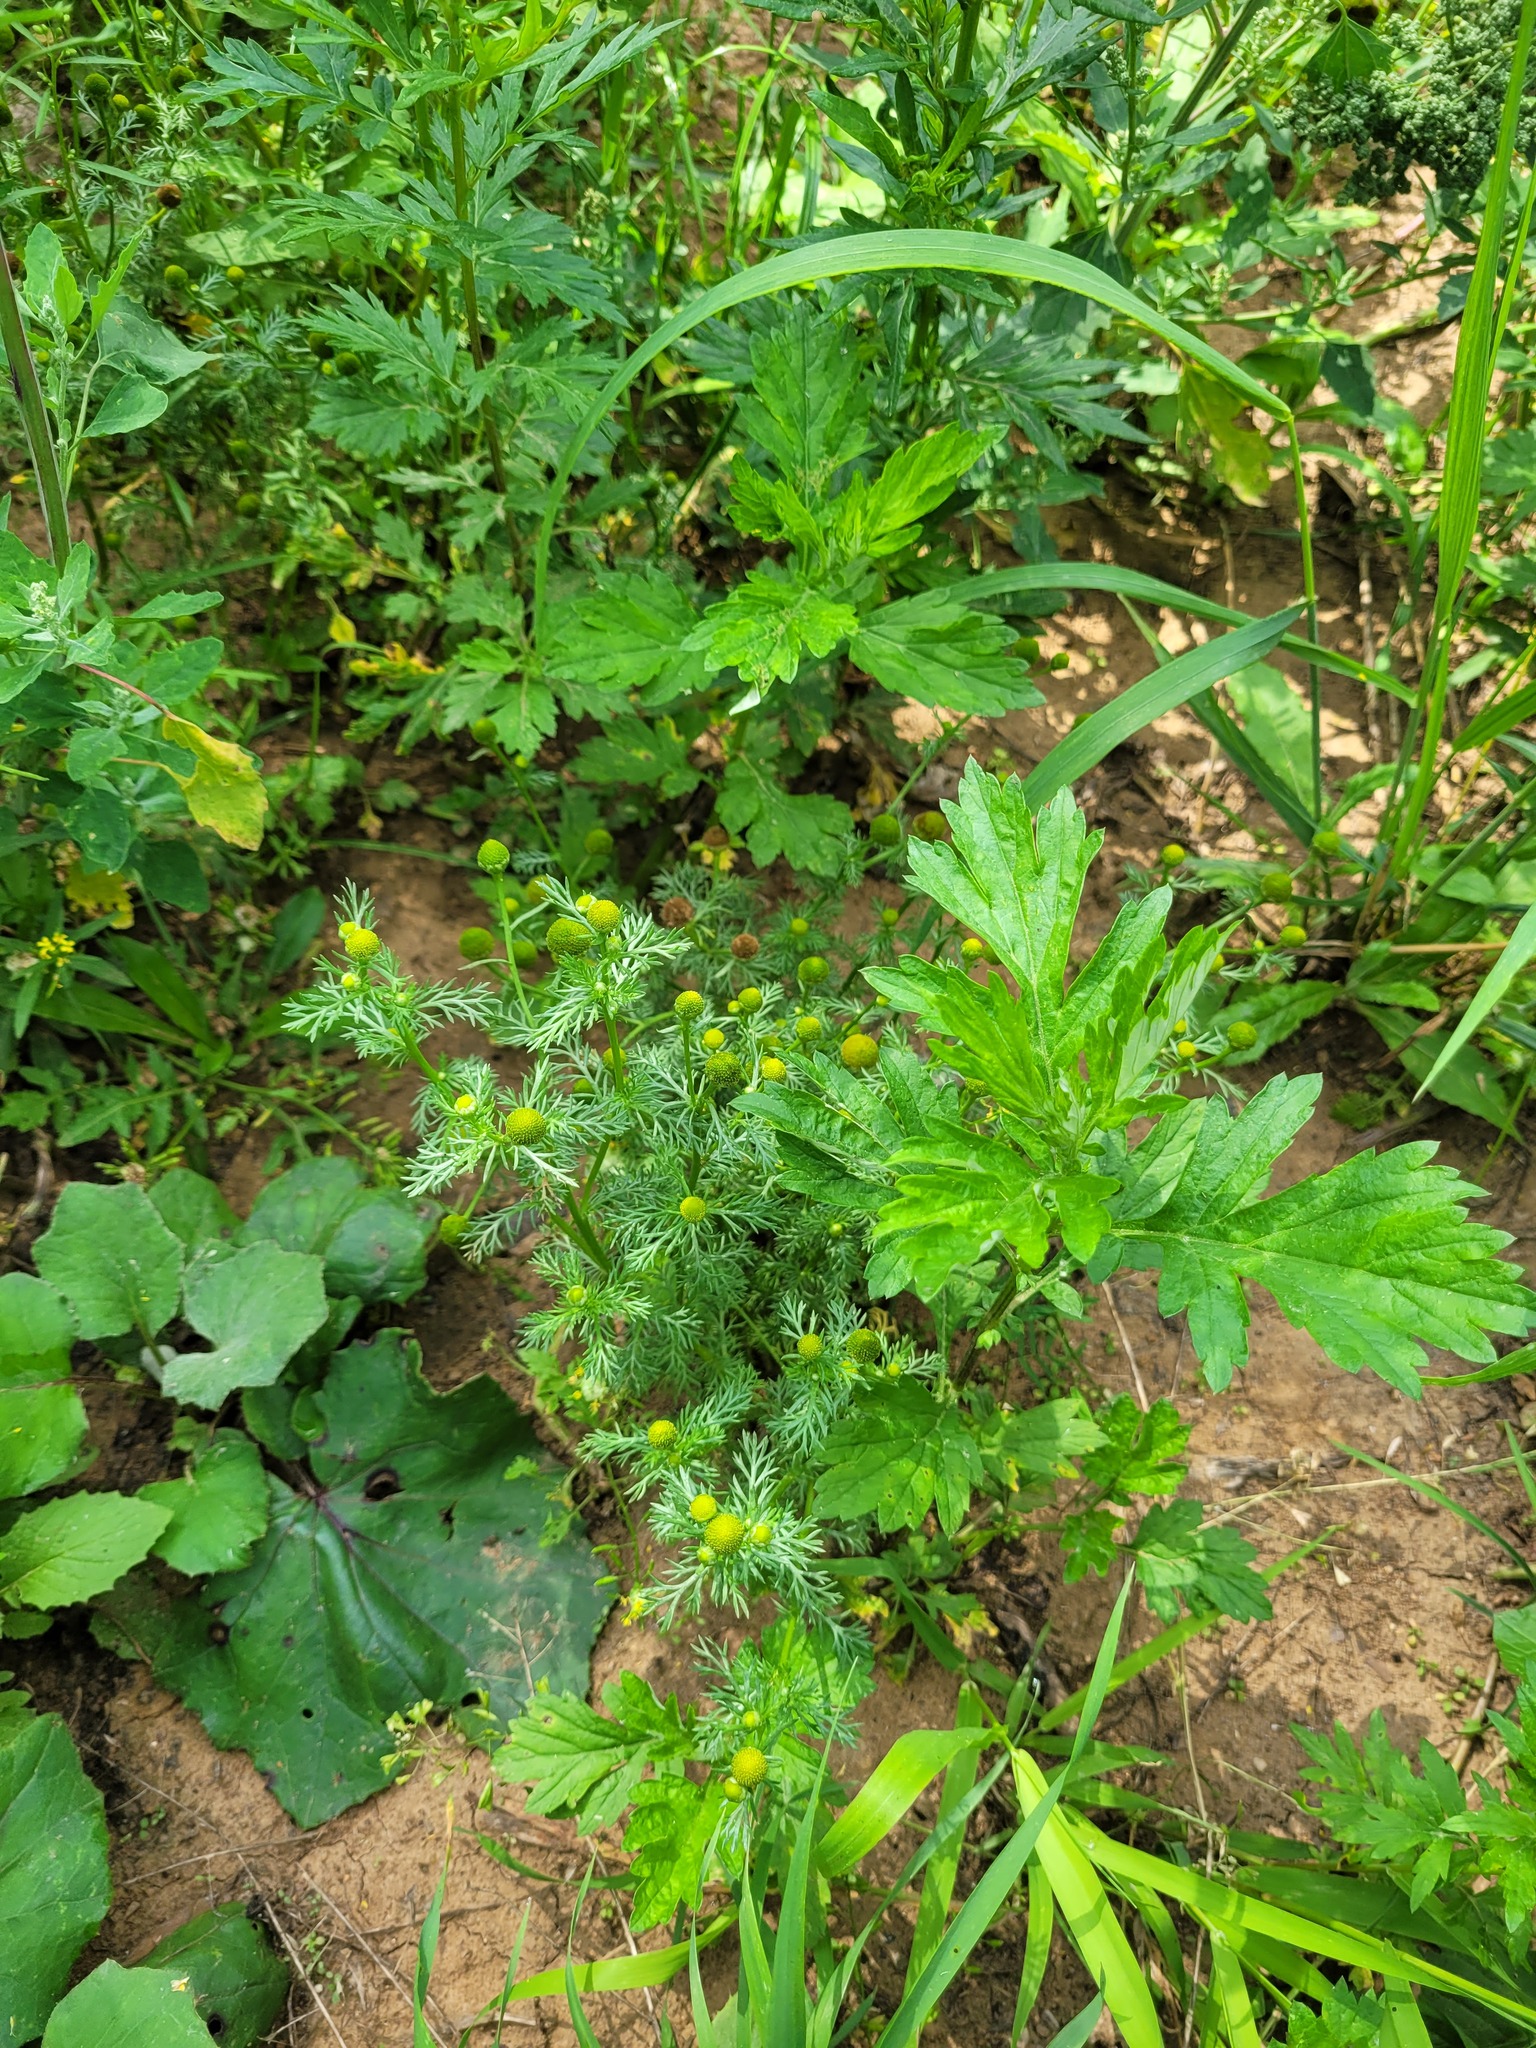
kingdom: Plantae
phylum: Tracheophyta
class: Magnoliopsida
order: Asterales
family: Asteraceae
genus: Matricaria
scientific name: Matricaria discoidea
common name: Disc mayweed
